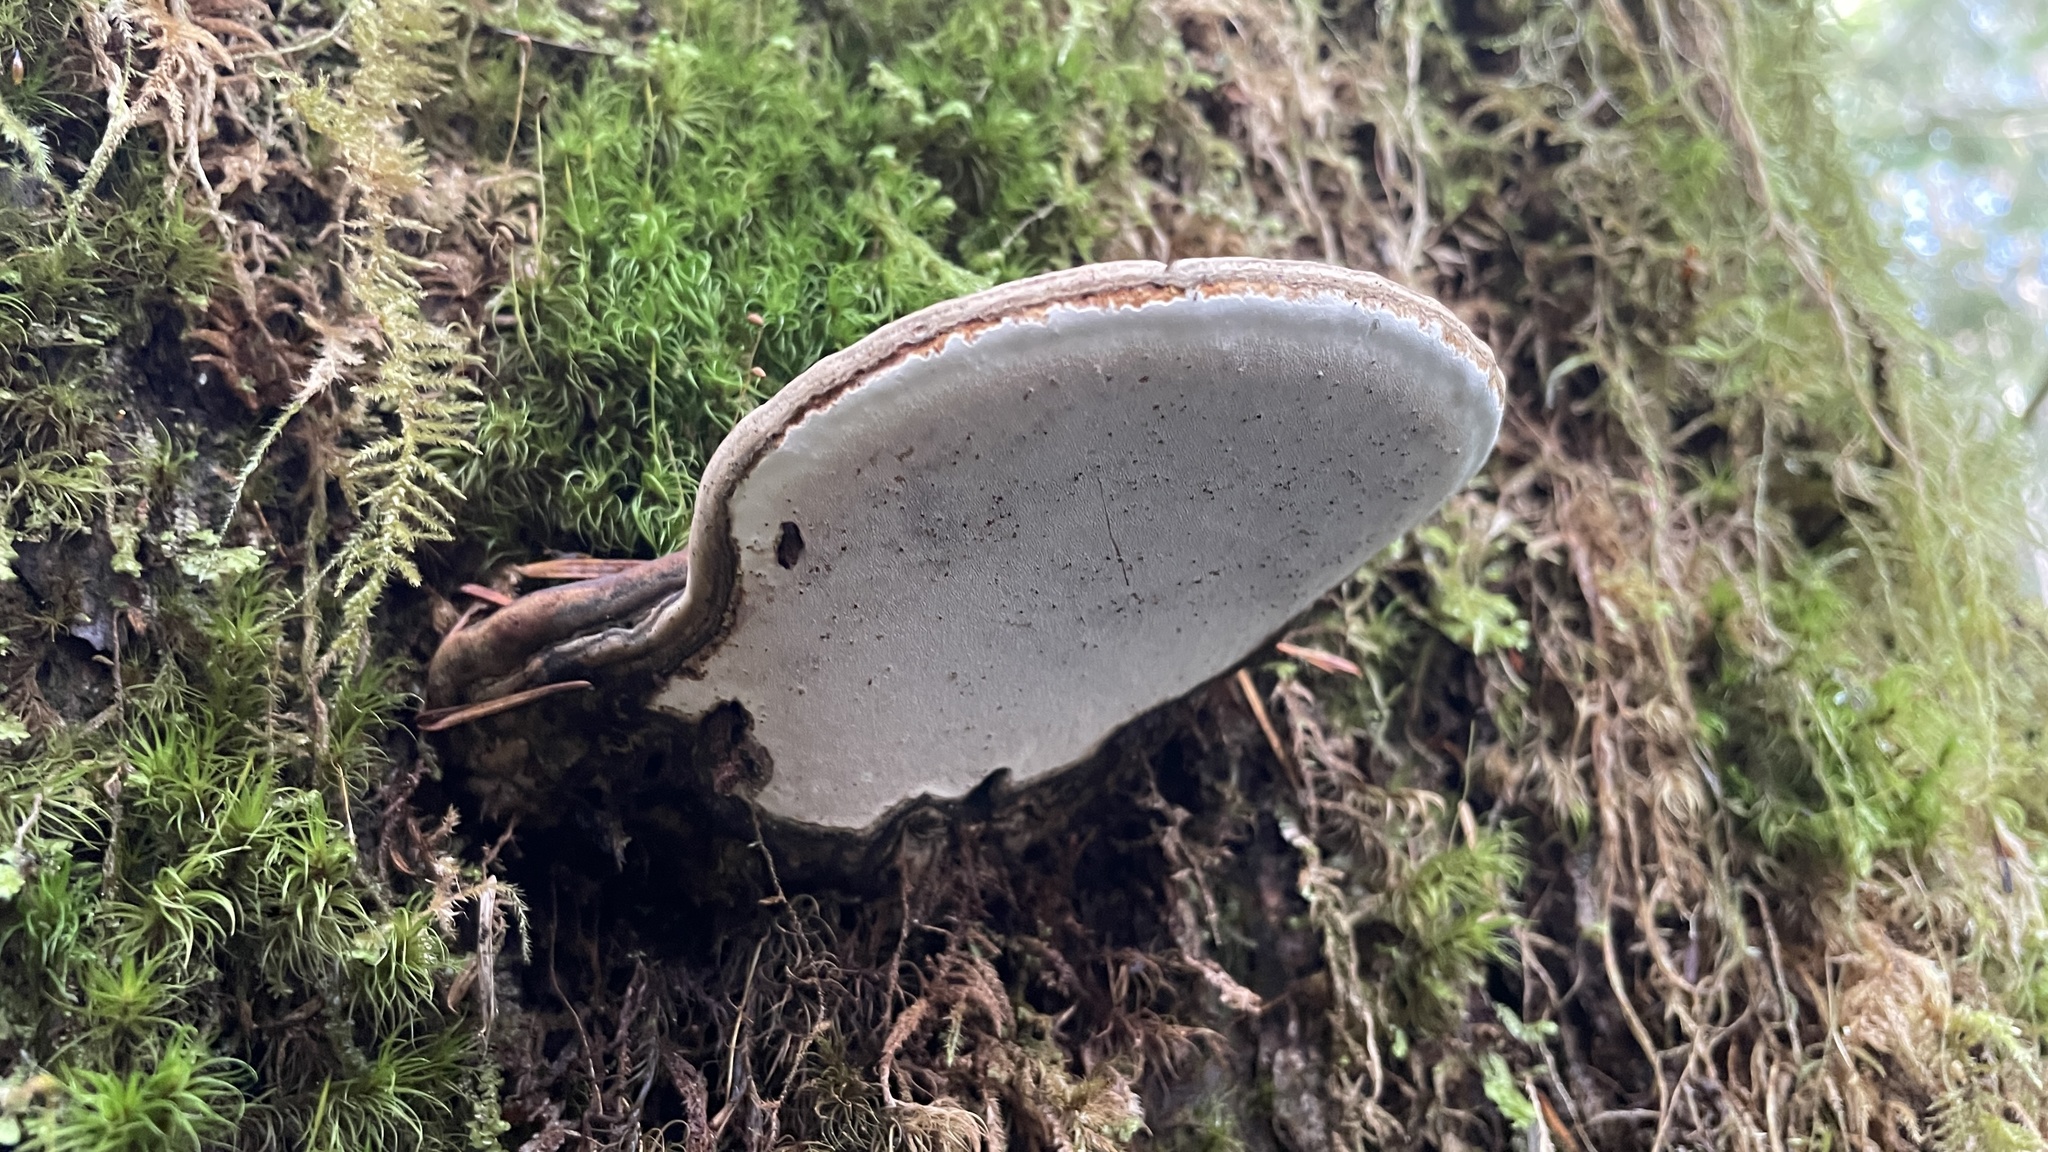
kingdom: Fungi
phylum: Basidiomycota
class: Agaricomycetes
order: Polyporales
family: Polyporaceae
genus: Ganoderma
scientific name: Ganoderma applanatum
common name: Artist's bracket
